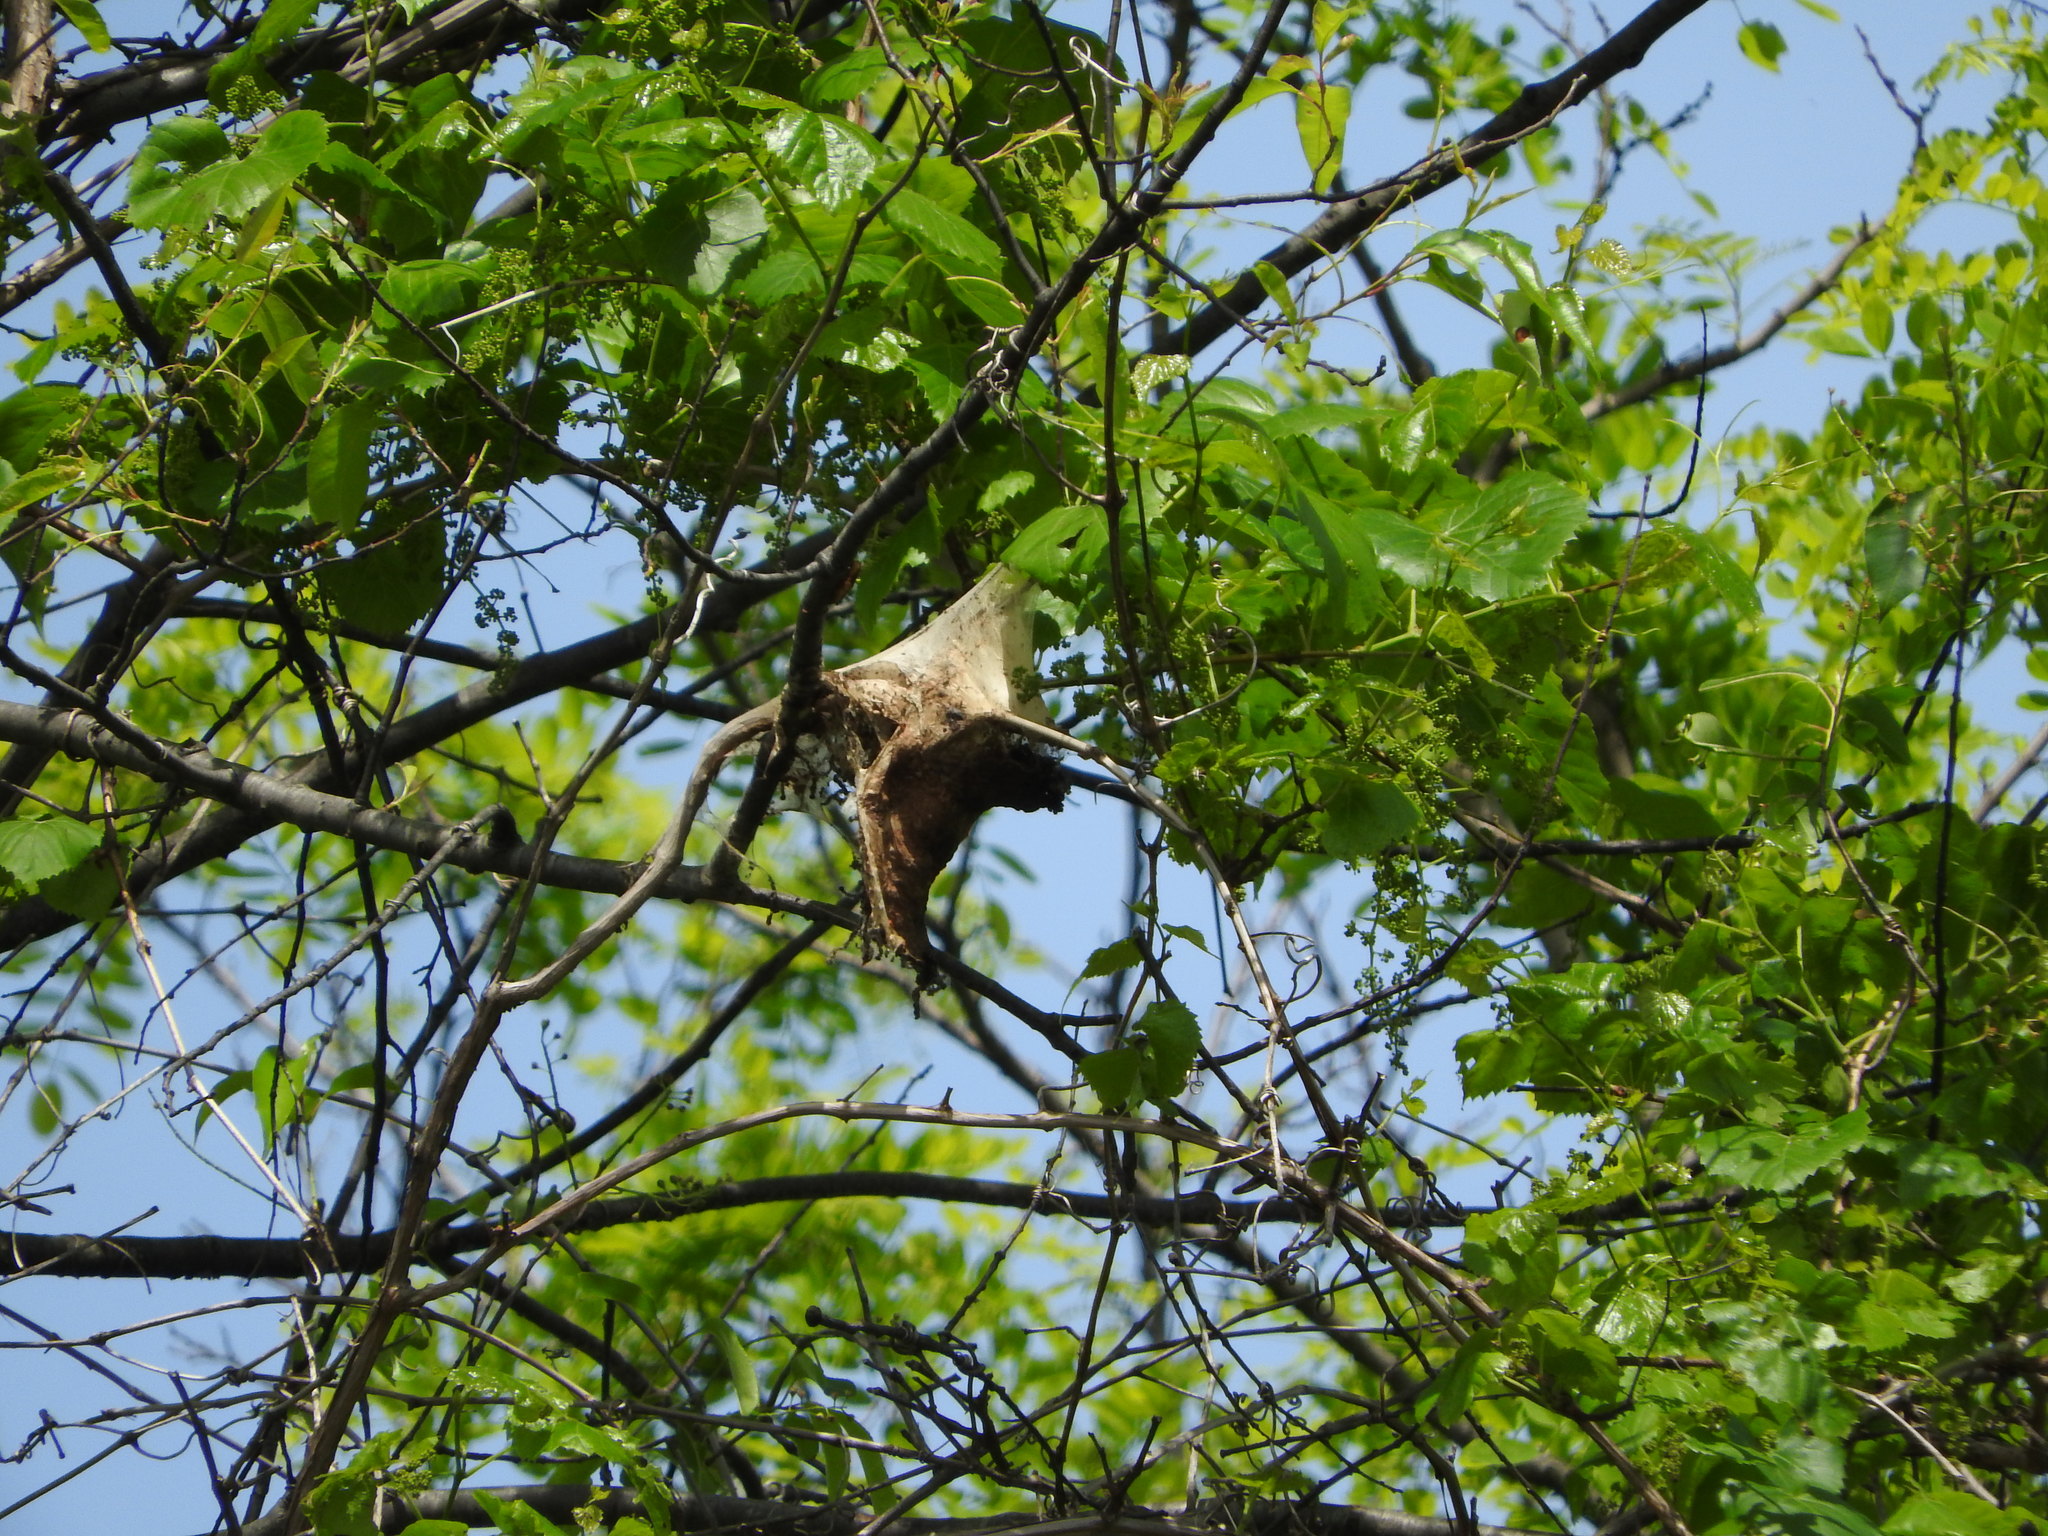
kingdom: Animalia
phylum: Arthropoda
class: Insecta
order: Lepidoptera
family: Lasiocampidae
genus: Malacosoma
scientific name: Malacosoma americana
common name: Eastern tent caterpillar moth
